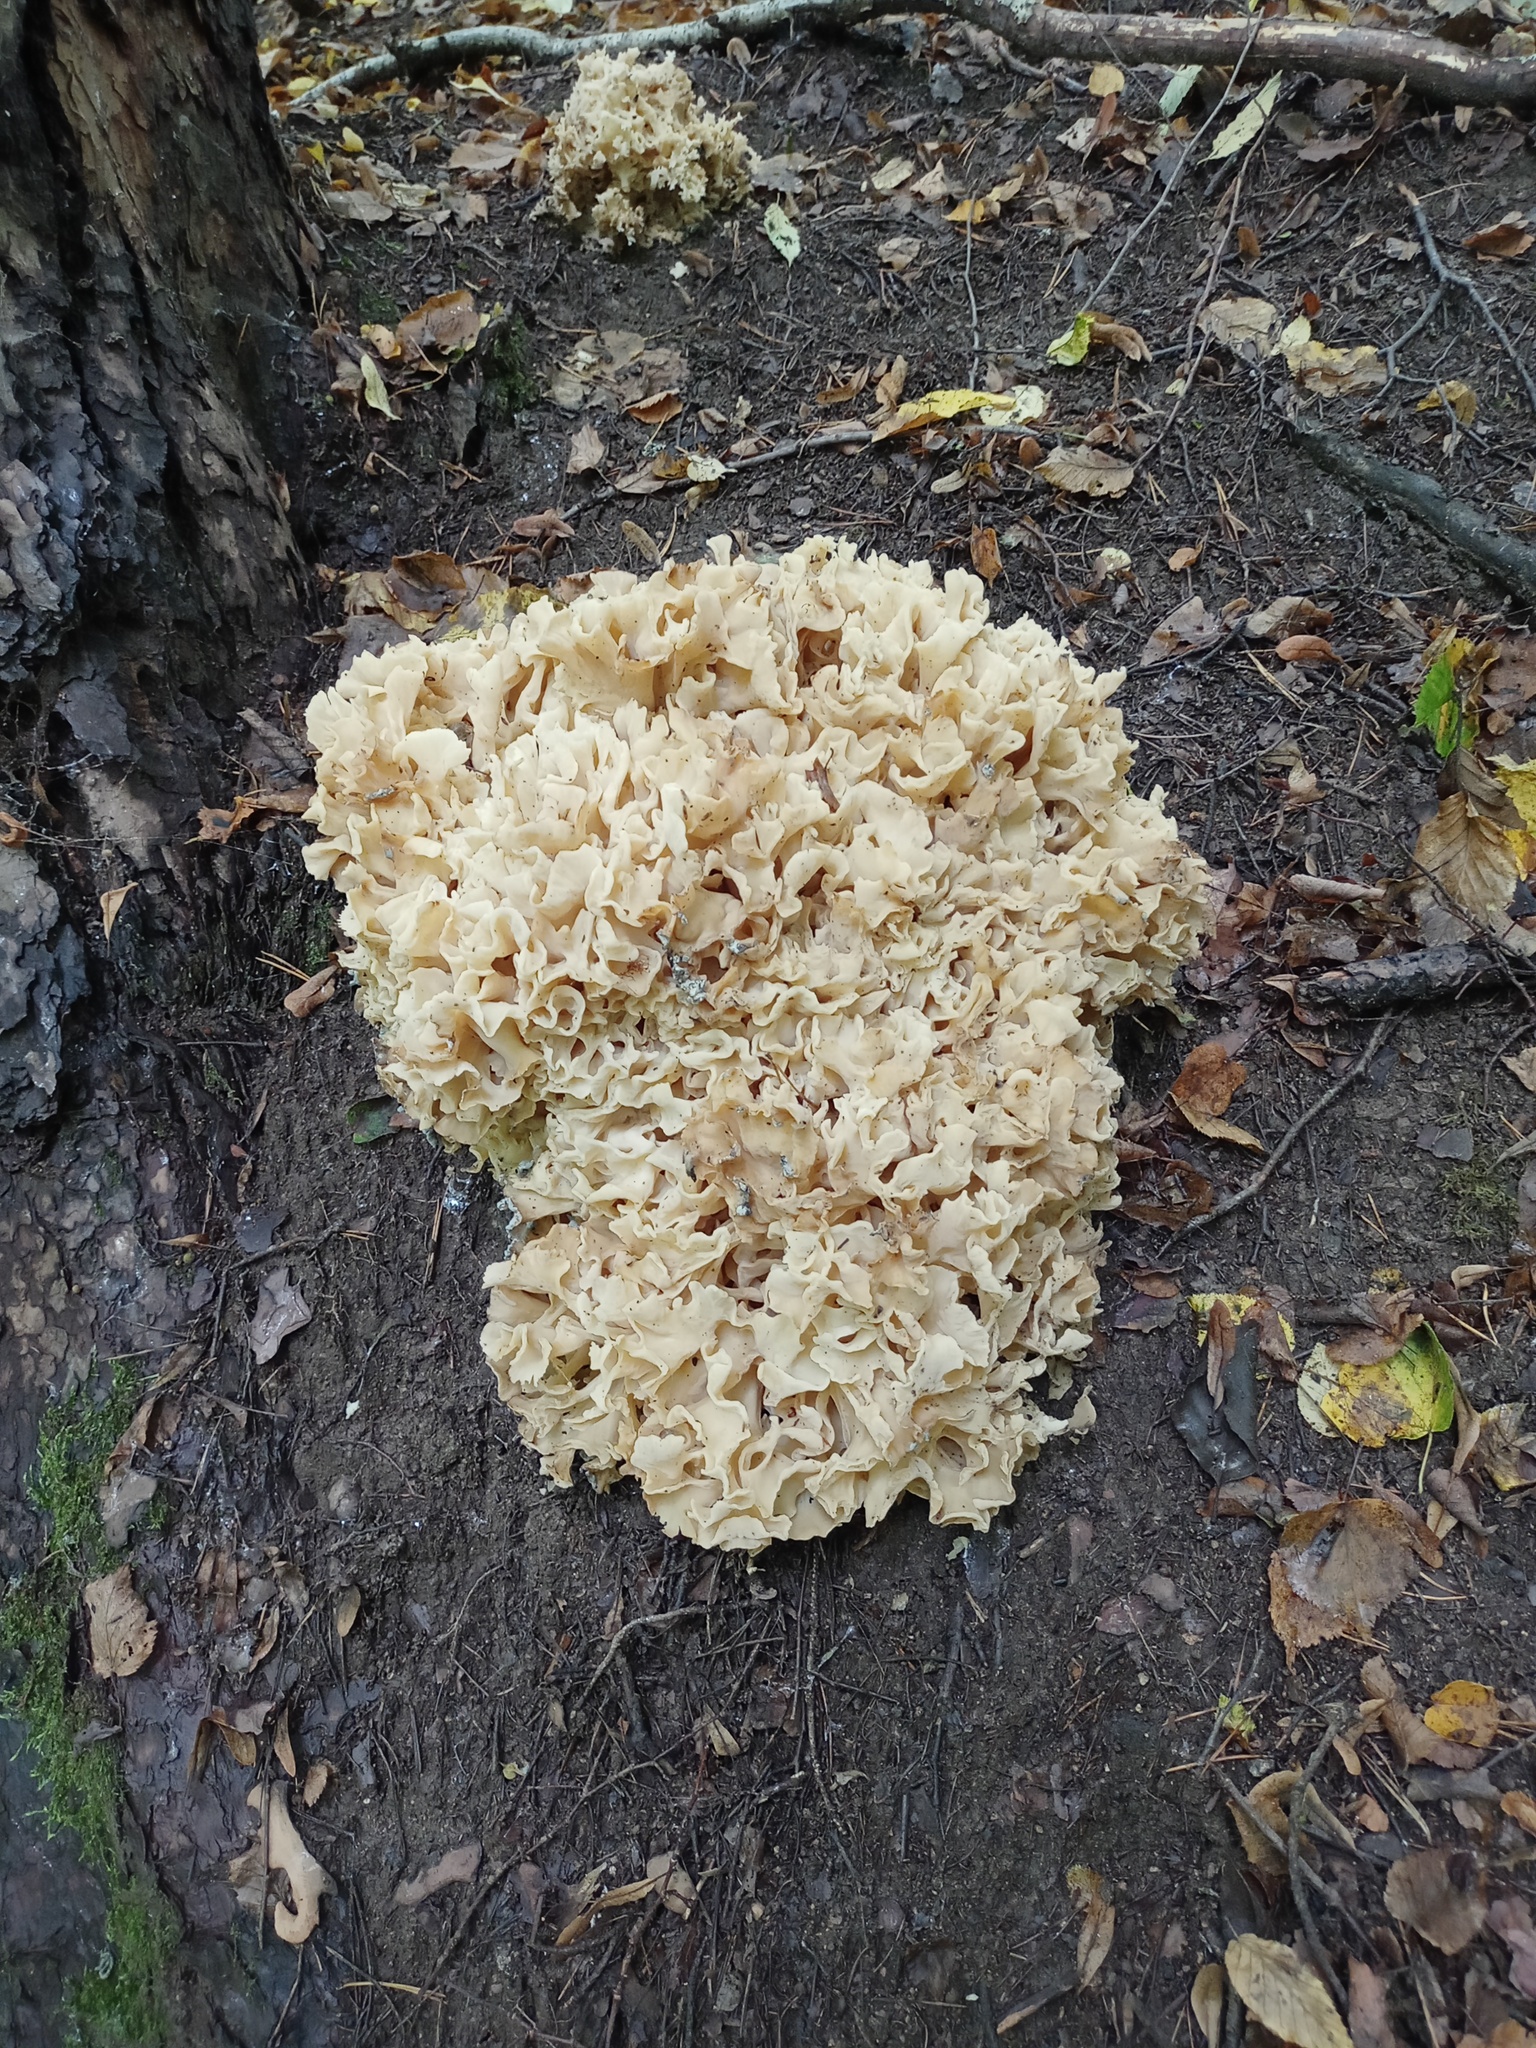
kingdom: Fungi
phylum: Basidiomycota
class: Agaricomycetes
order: Polyporales
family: Sparassidaceae
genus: Sparassis
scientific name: Sparassis crispa
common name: Brain fungus
